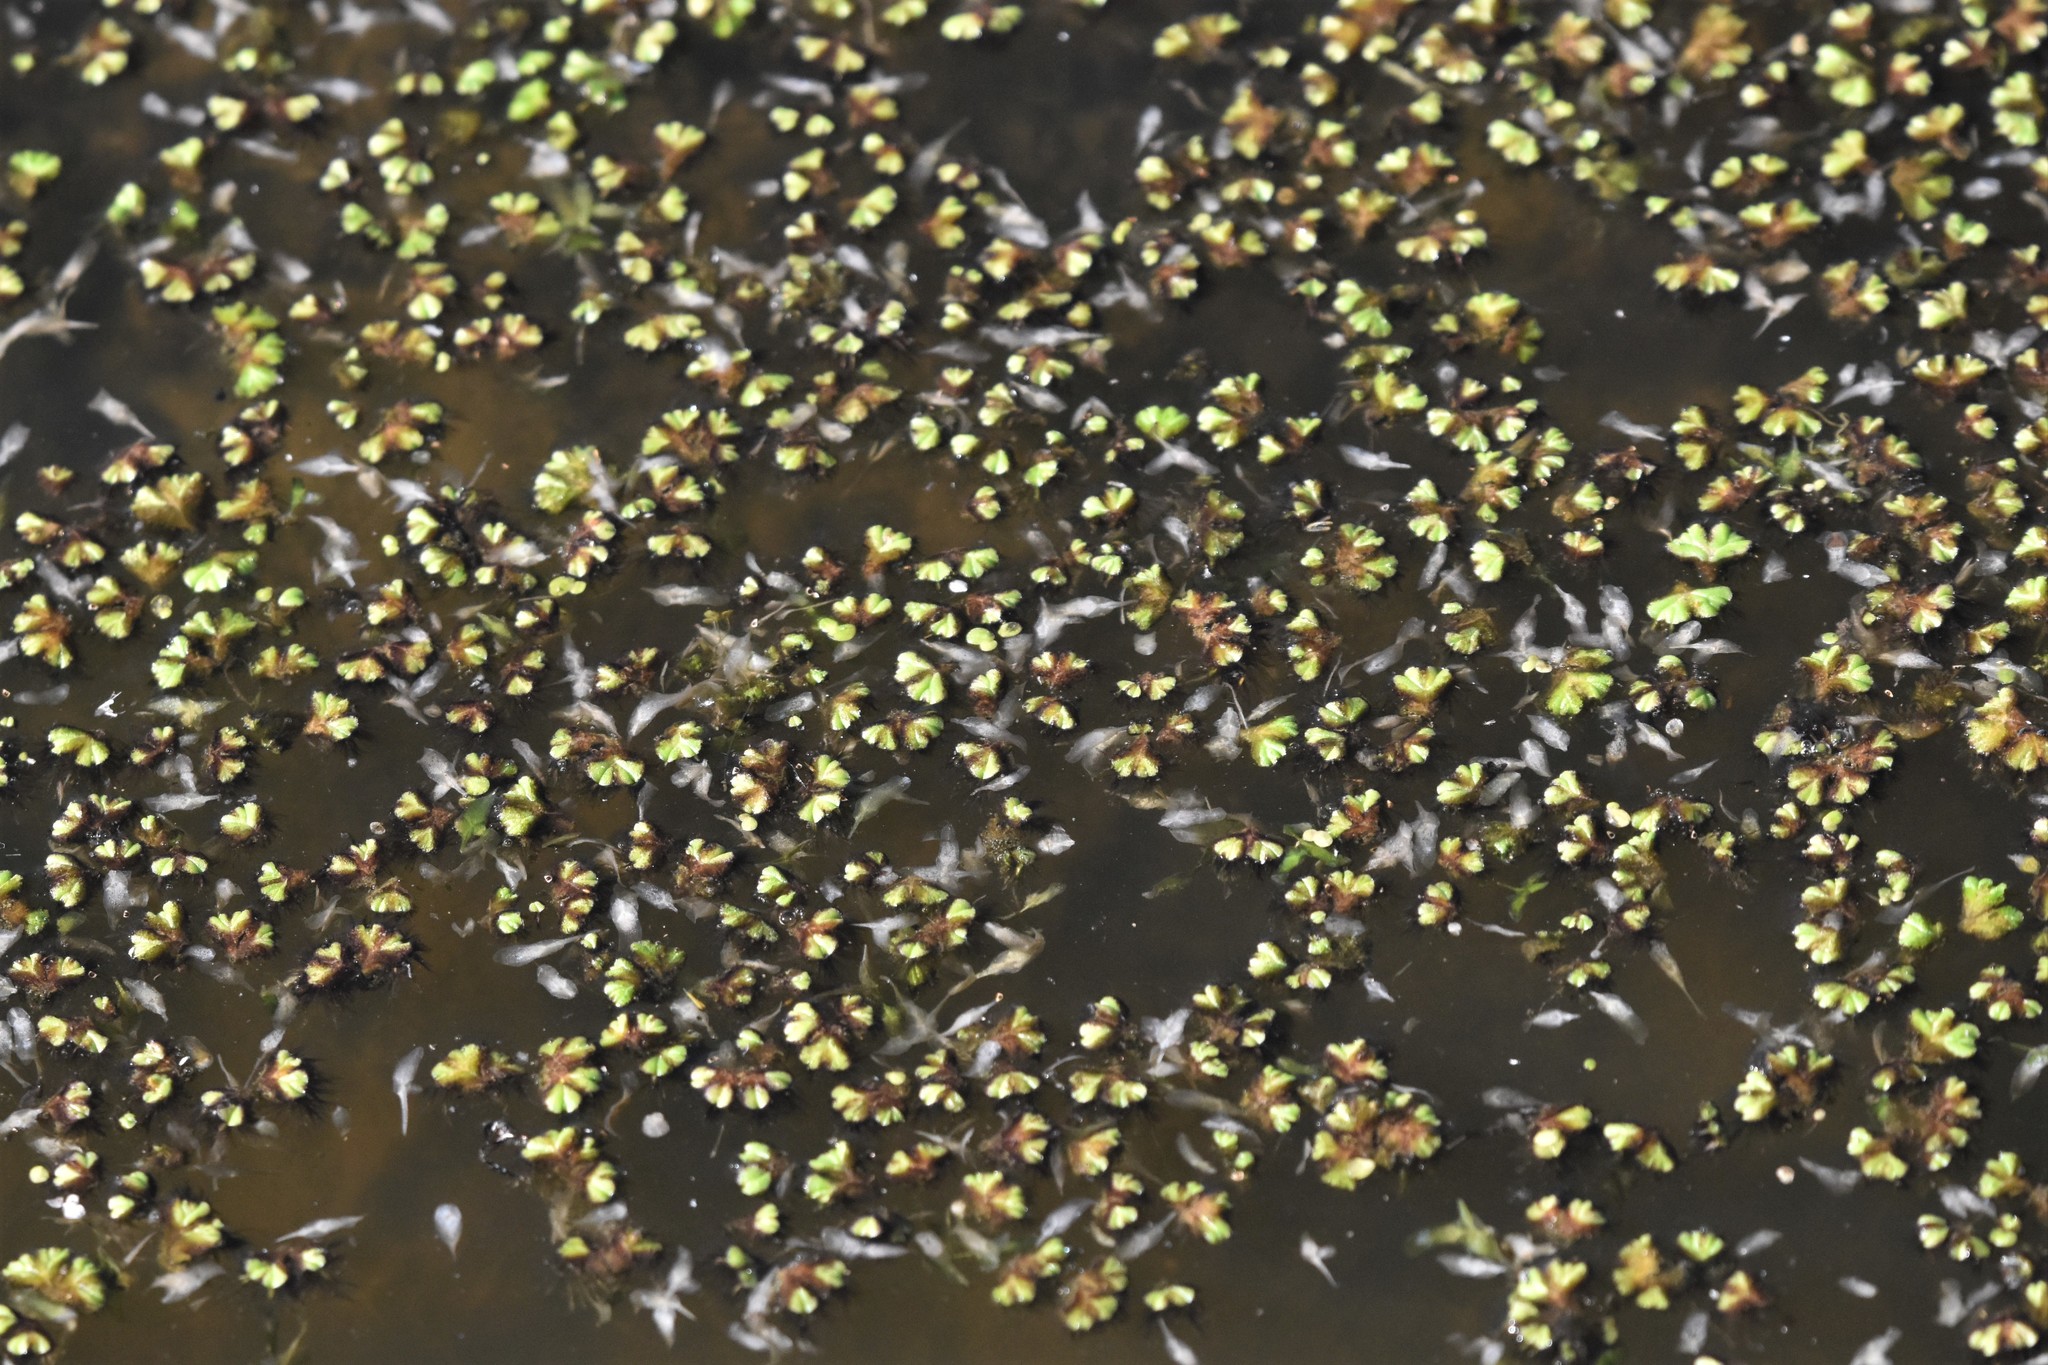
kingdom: Plantae
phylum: Marchantiophyta
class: Marchantiopsida
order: Marchantiales
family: Ricciaceae
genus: Ricciocarpos
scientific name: Ricciocarpos natans
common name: Purple-fringed liverwort
